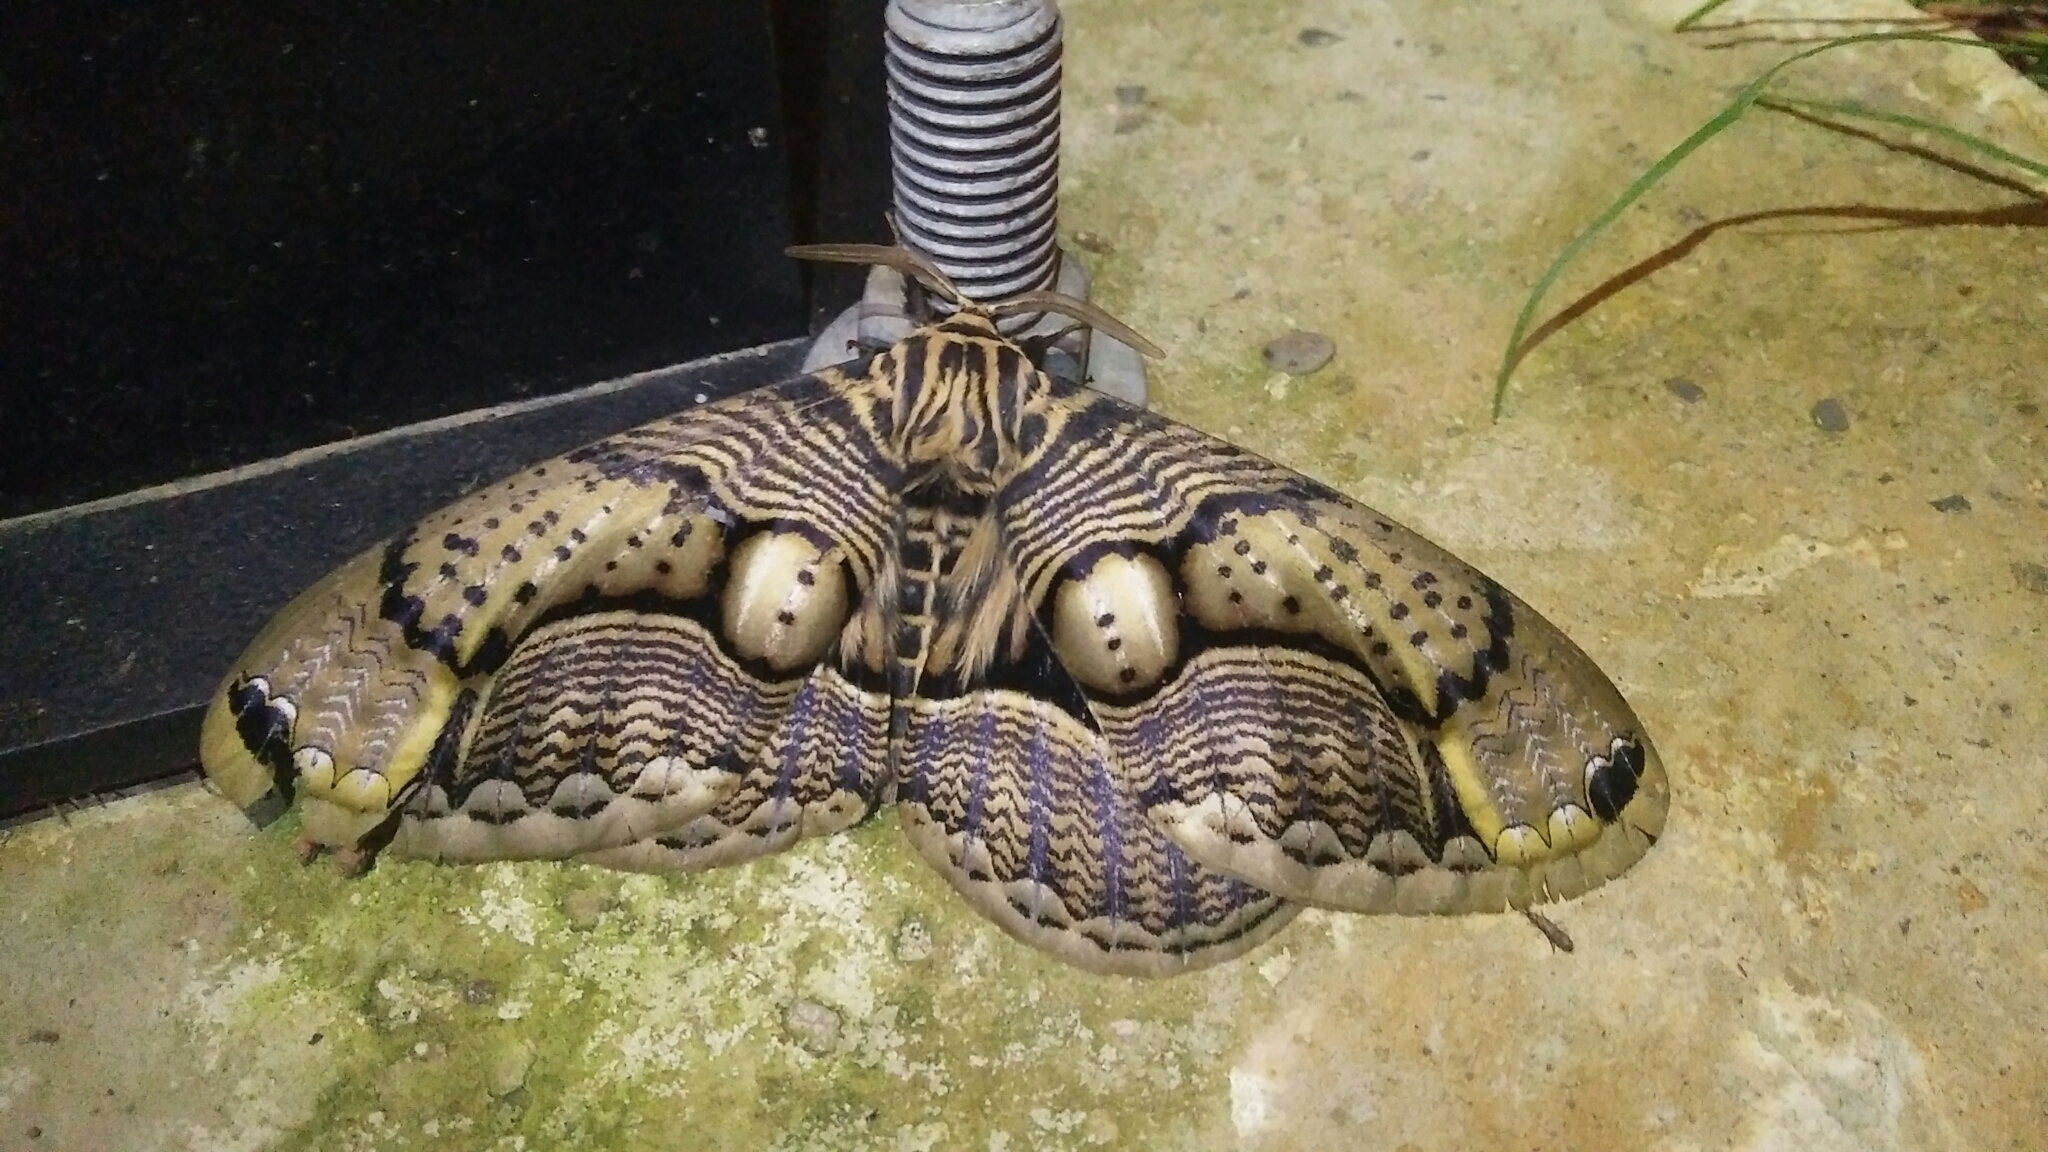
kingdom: Animalia
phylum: Arthropoda
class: Insecta
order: Lepidoptera
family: Brahmaeidae
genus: Brahmaea
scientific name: Brahmaea wallichii
